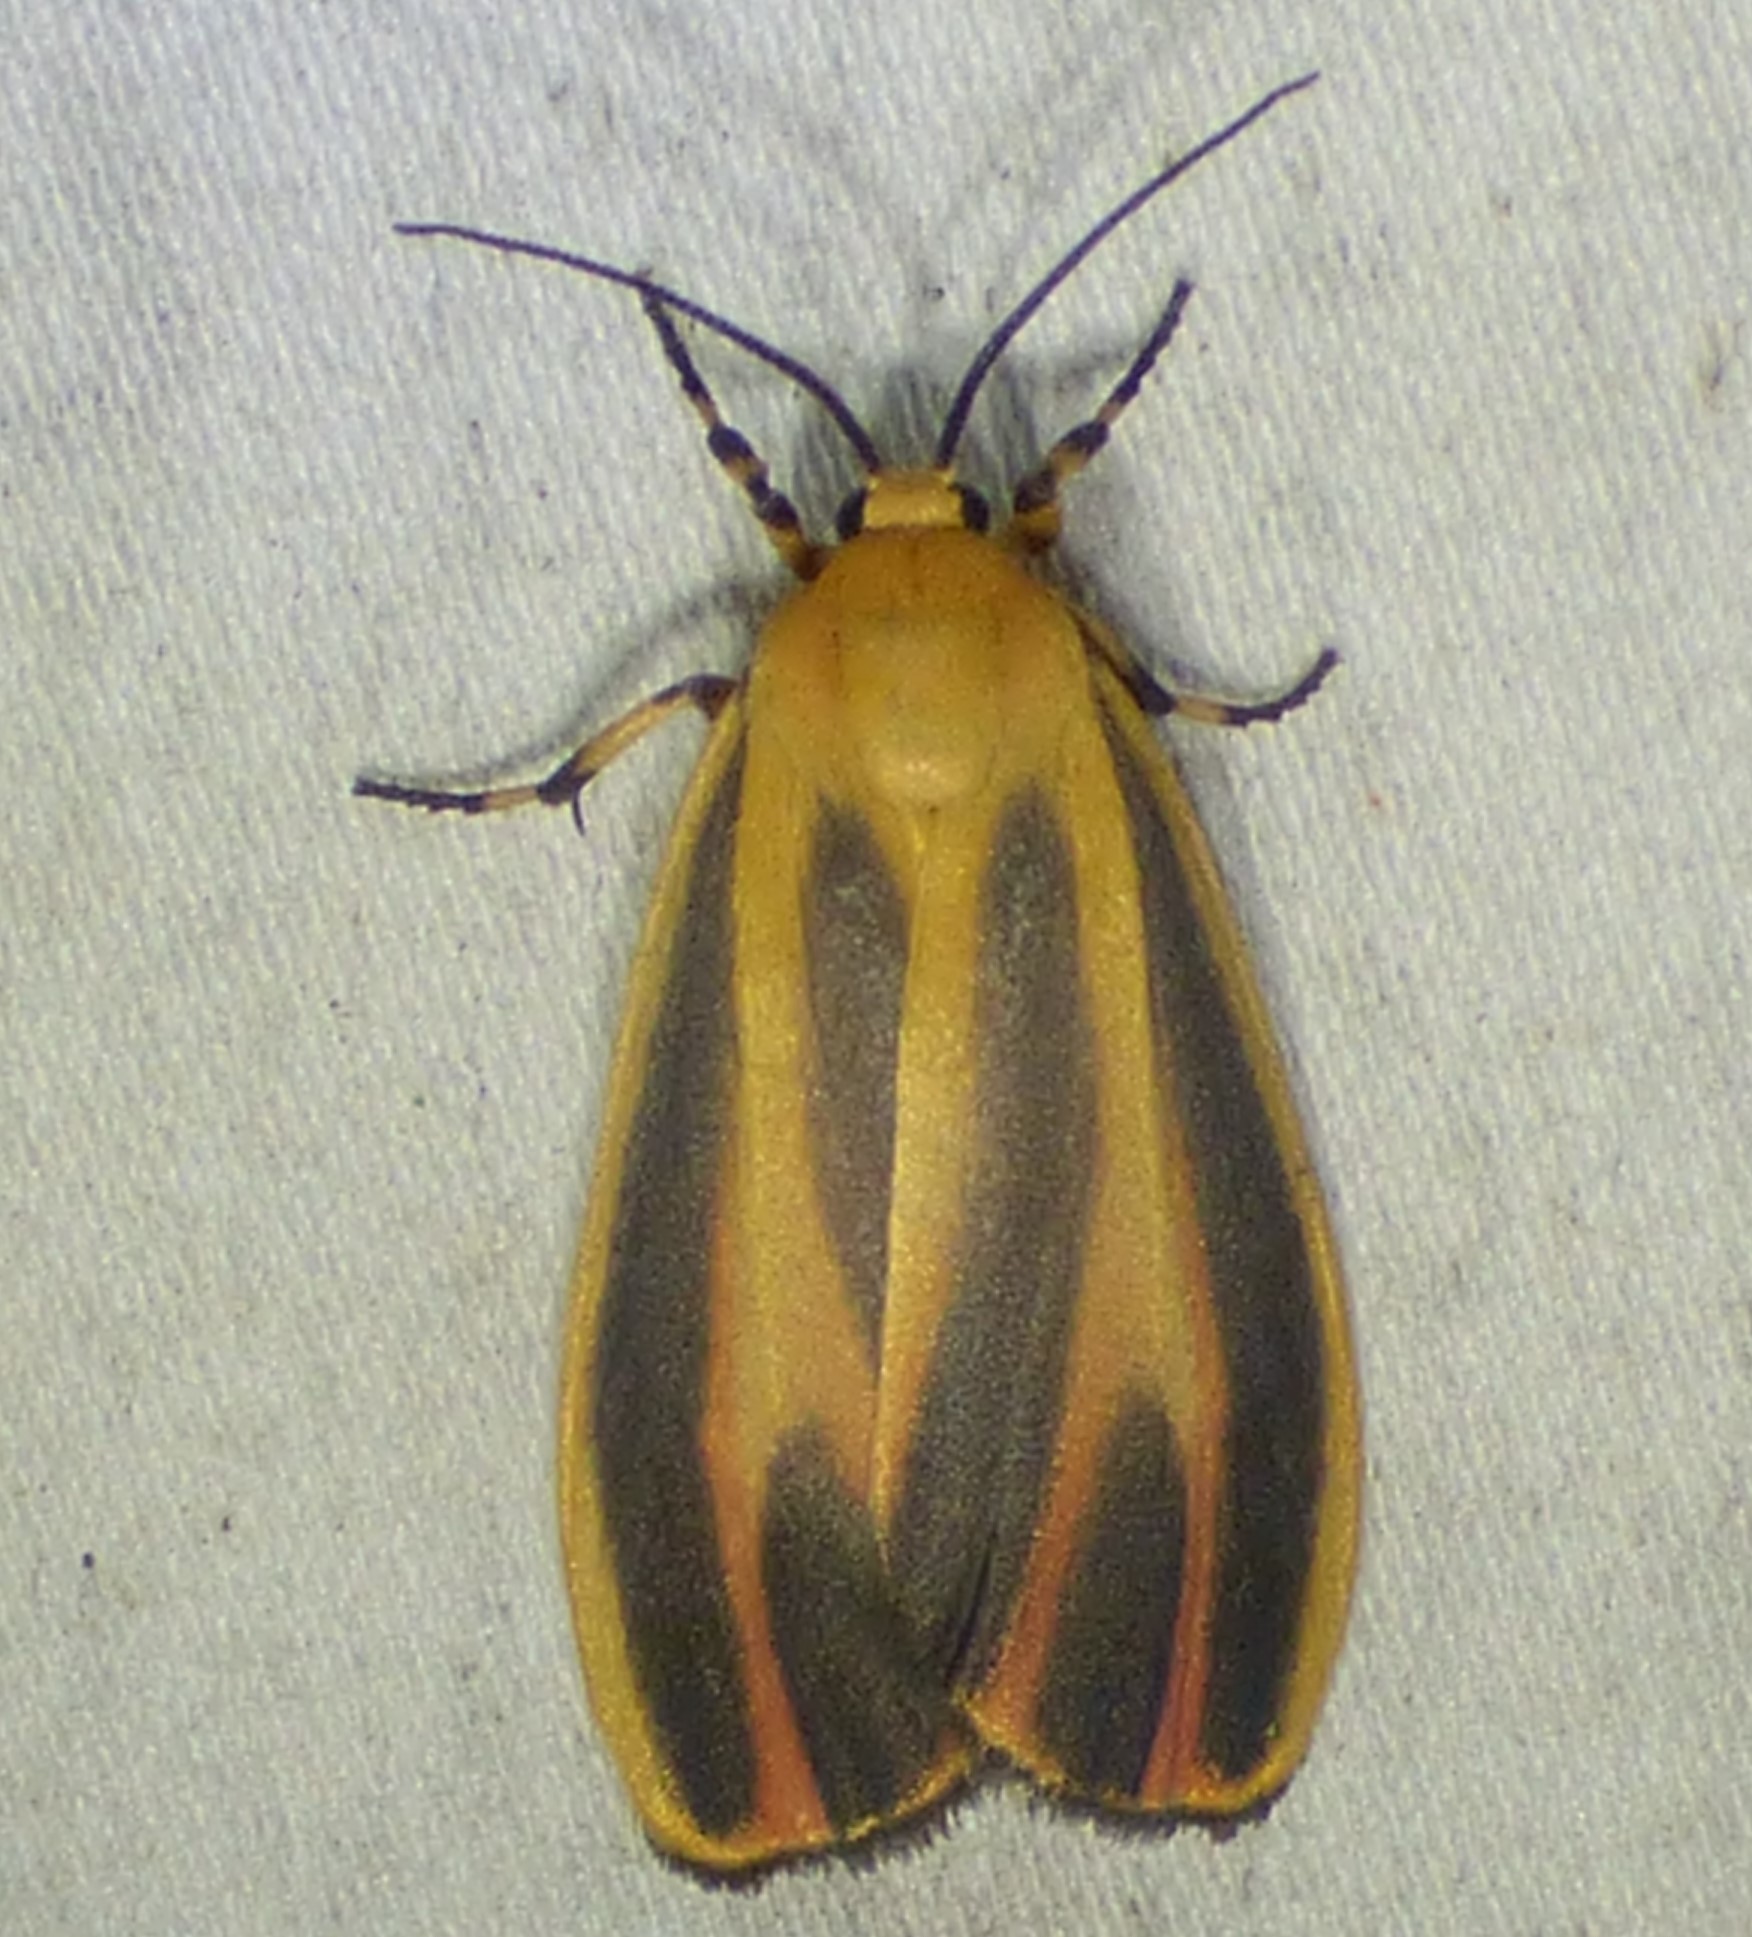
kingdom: Animalia
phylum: Arthropoda
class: Insecta
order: Lepidoptera
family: Erebidae
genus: Hypoprepia
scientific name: Hypoprepia fucosa
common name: Painted lichen moth
